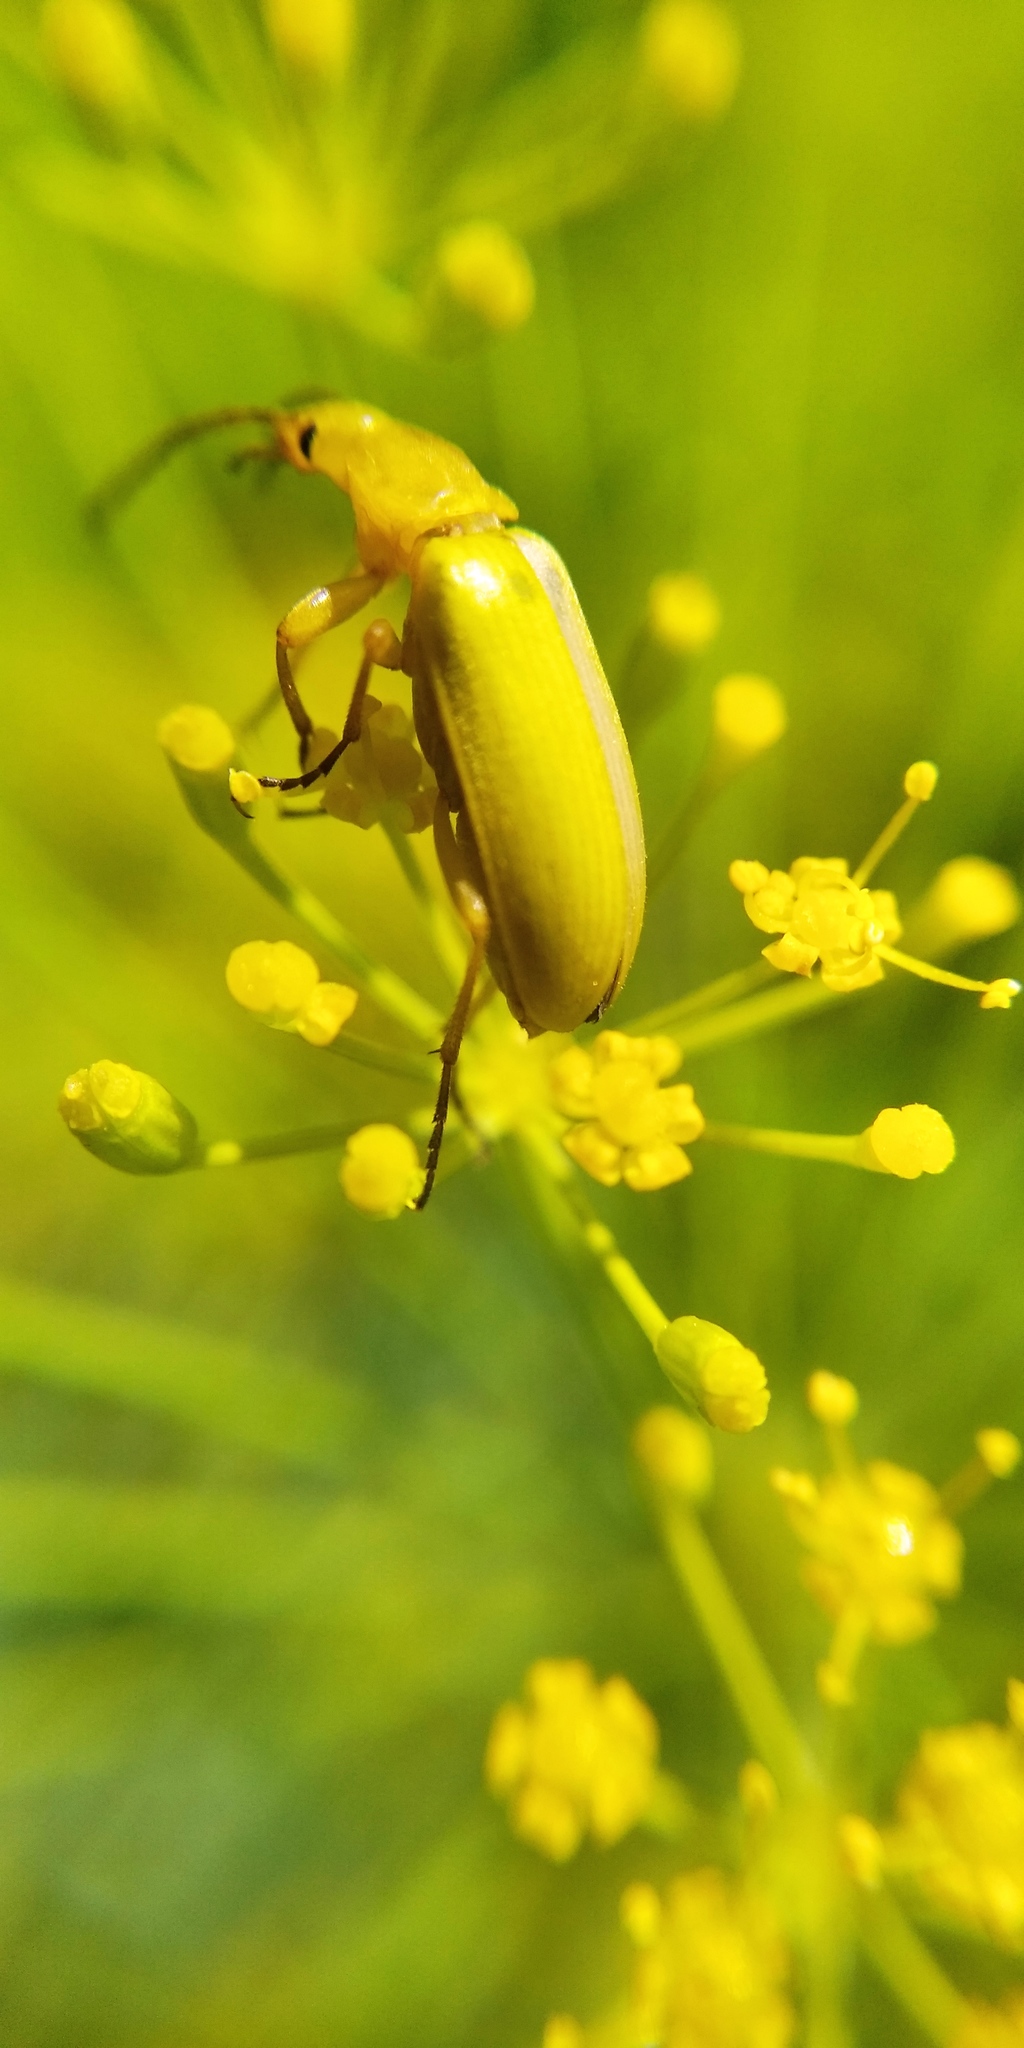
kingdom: Animalia
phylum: Arthropoda
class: Insecta
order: Coleoptera
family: Tenebrionidae
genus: Cteniopus
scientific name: Cteniopus sulphureus
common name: Sulphur beetle
